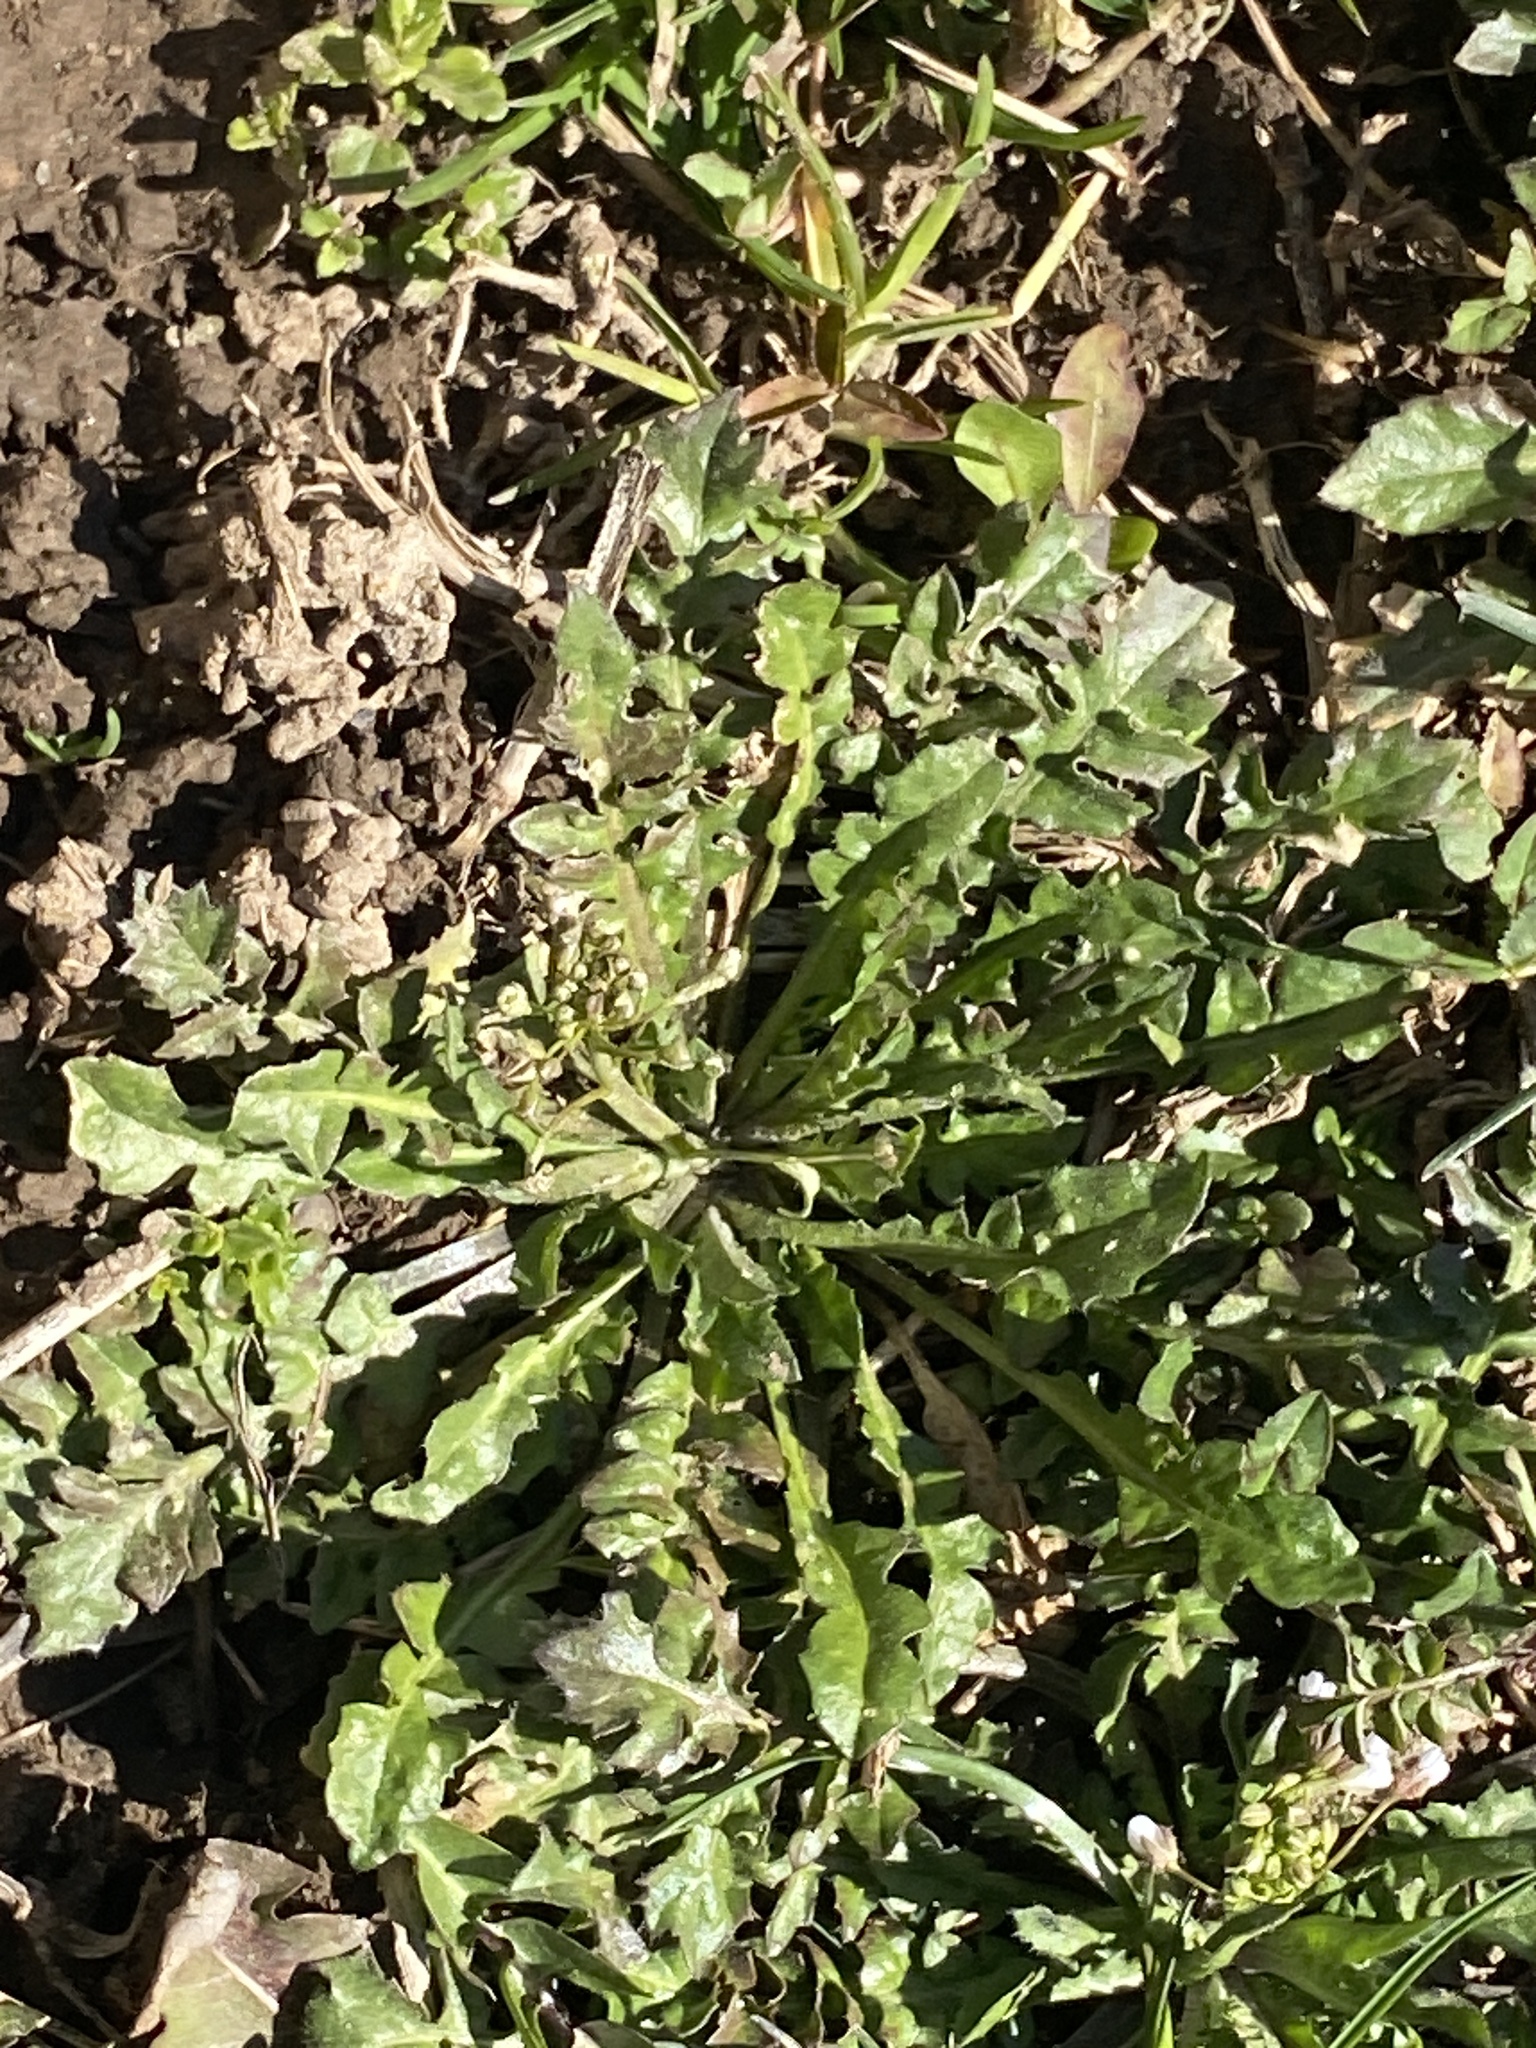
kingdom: Plantae
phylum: Tracheophyta
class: Magnoliopsida
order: Brassicales
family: Brassicaceae
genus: Capsella
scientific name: Capsella bursa-pastoris
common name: Shepherd's purse
